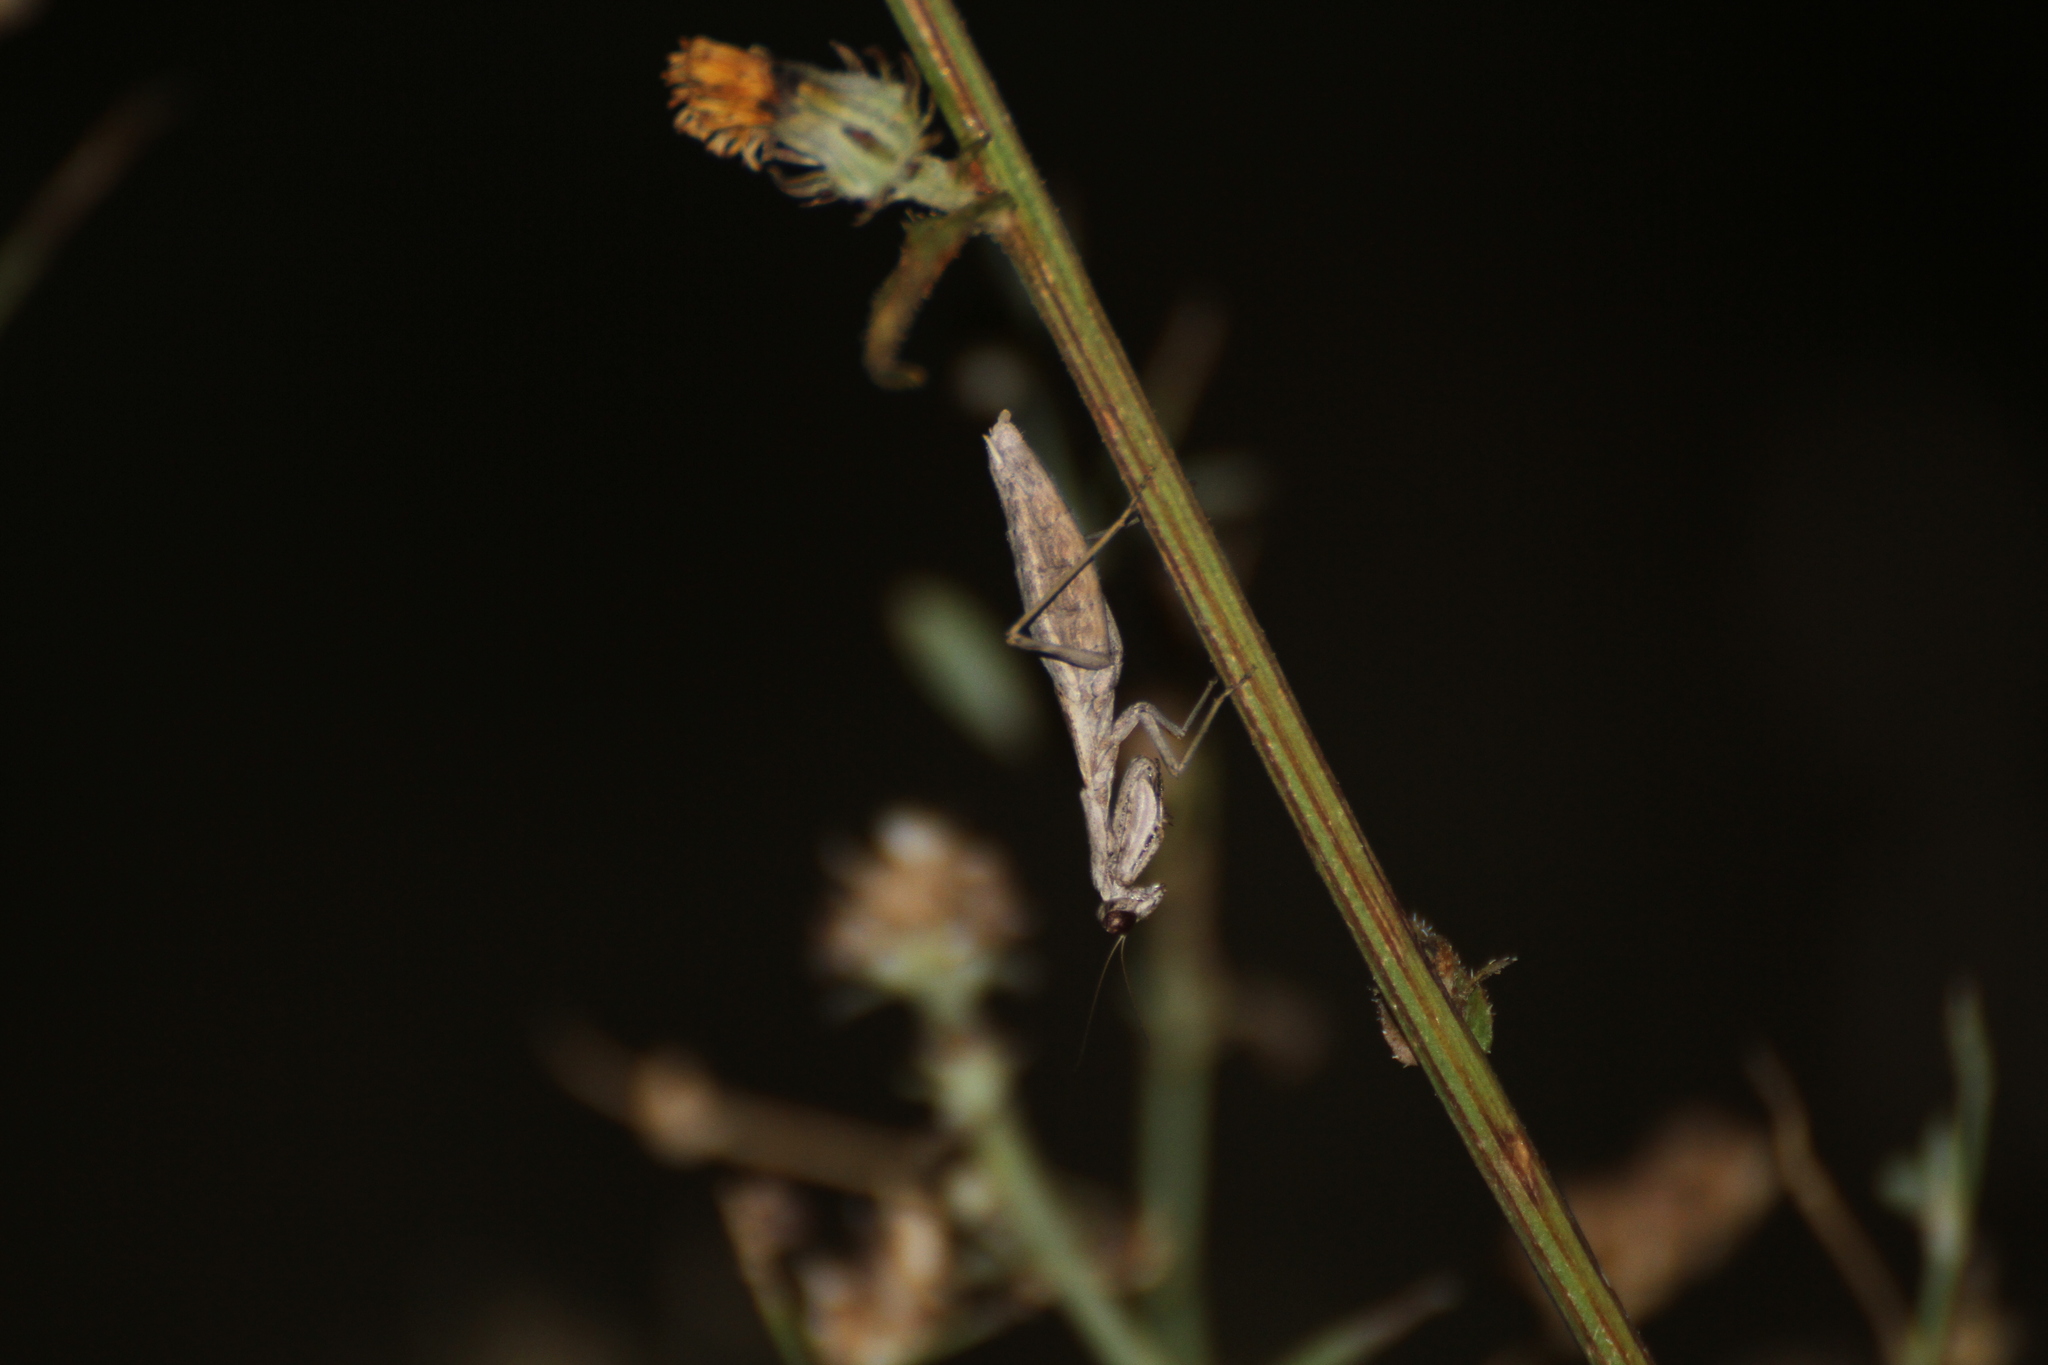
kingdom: Animalia
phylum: Arthropoda
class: Insecta
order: Mantodea
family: Amelidae
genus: Ameles
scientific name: Ameles decolor
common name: Dwarf mantis
